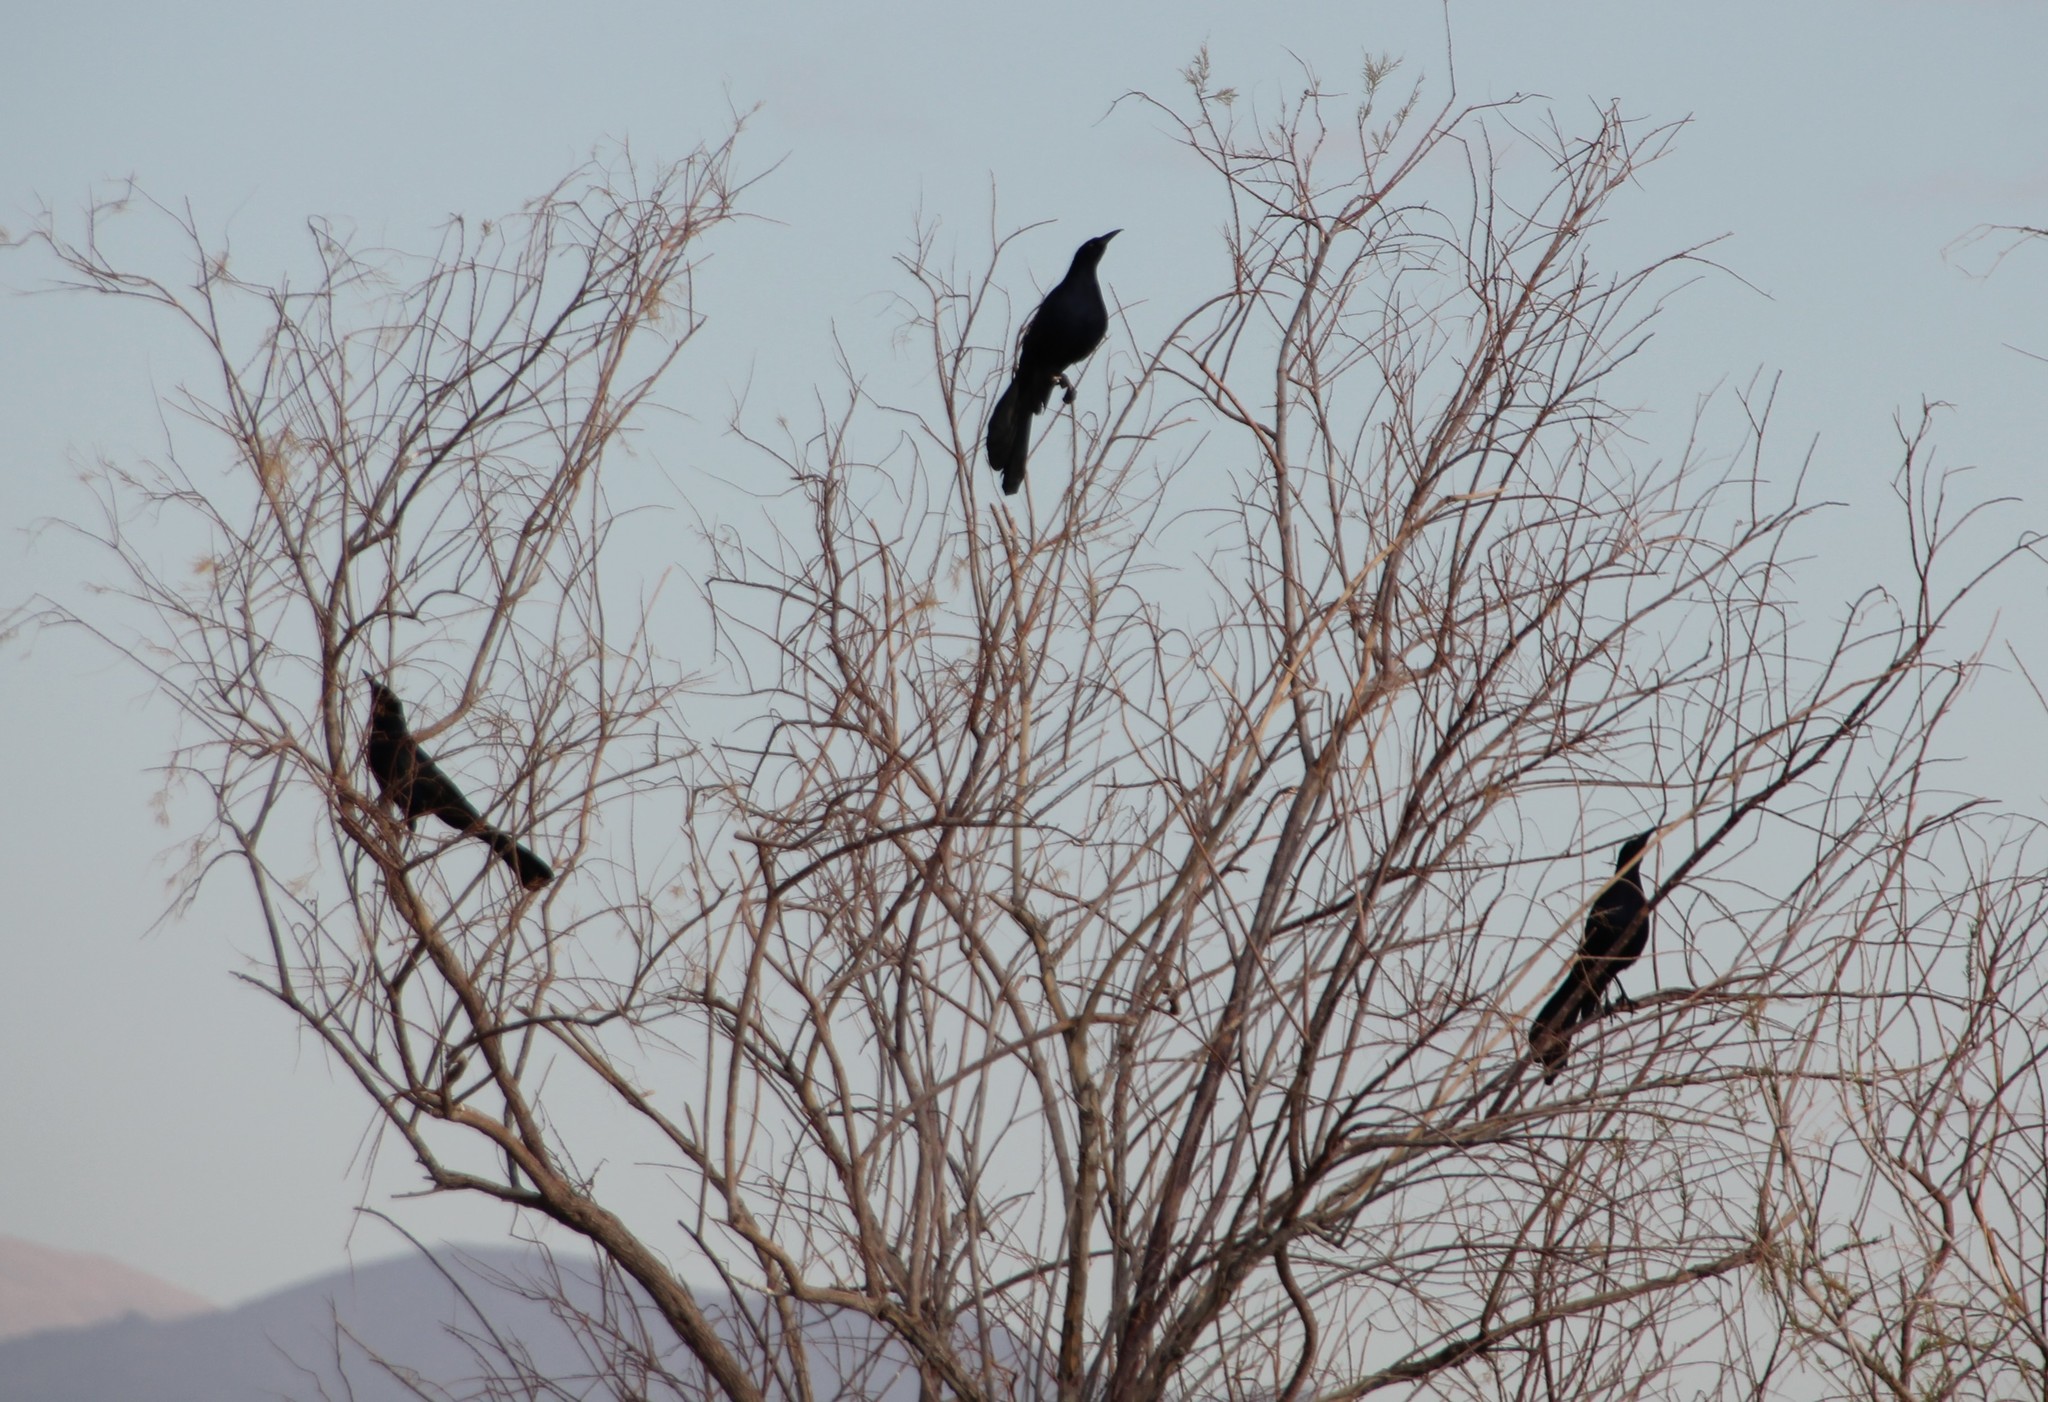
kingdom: Animalia
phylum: Chordata
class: Aves
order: Passeriformes
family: Icteridae
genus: Quiscalus
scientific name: Quiscalus mexicanus
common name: Great-tailed grackle
